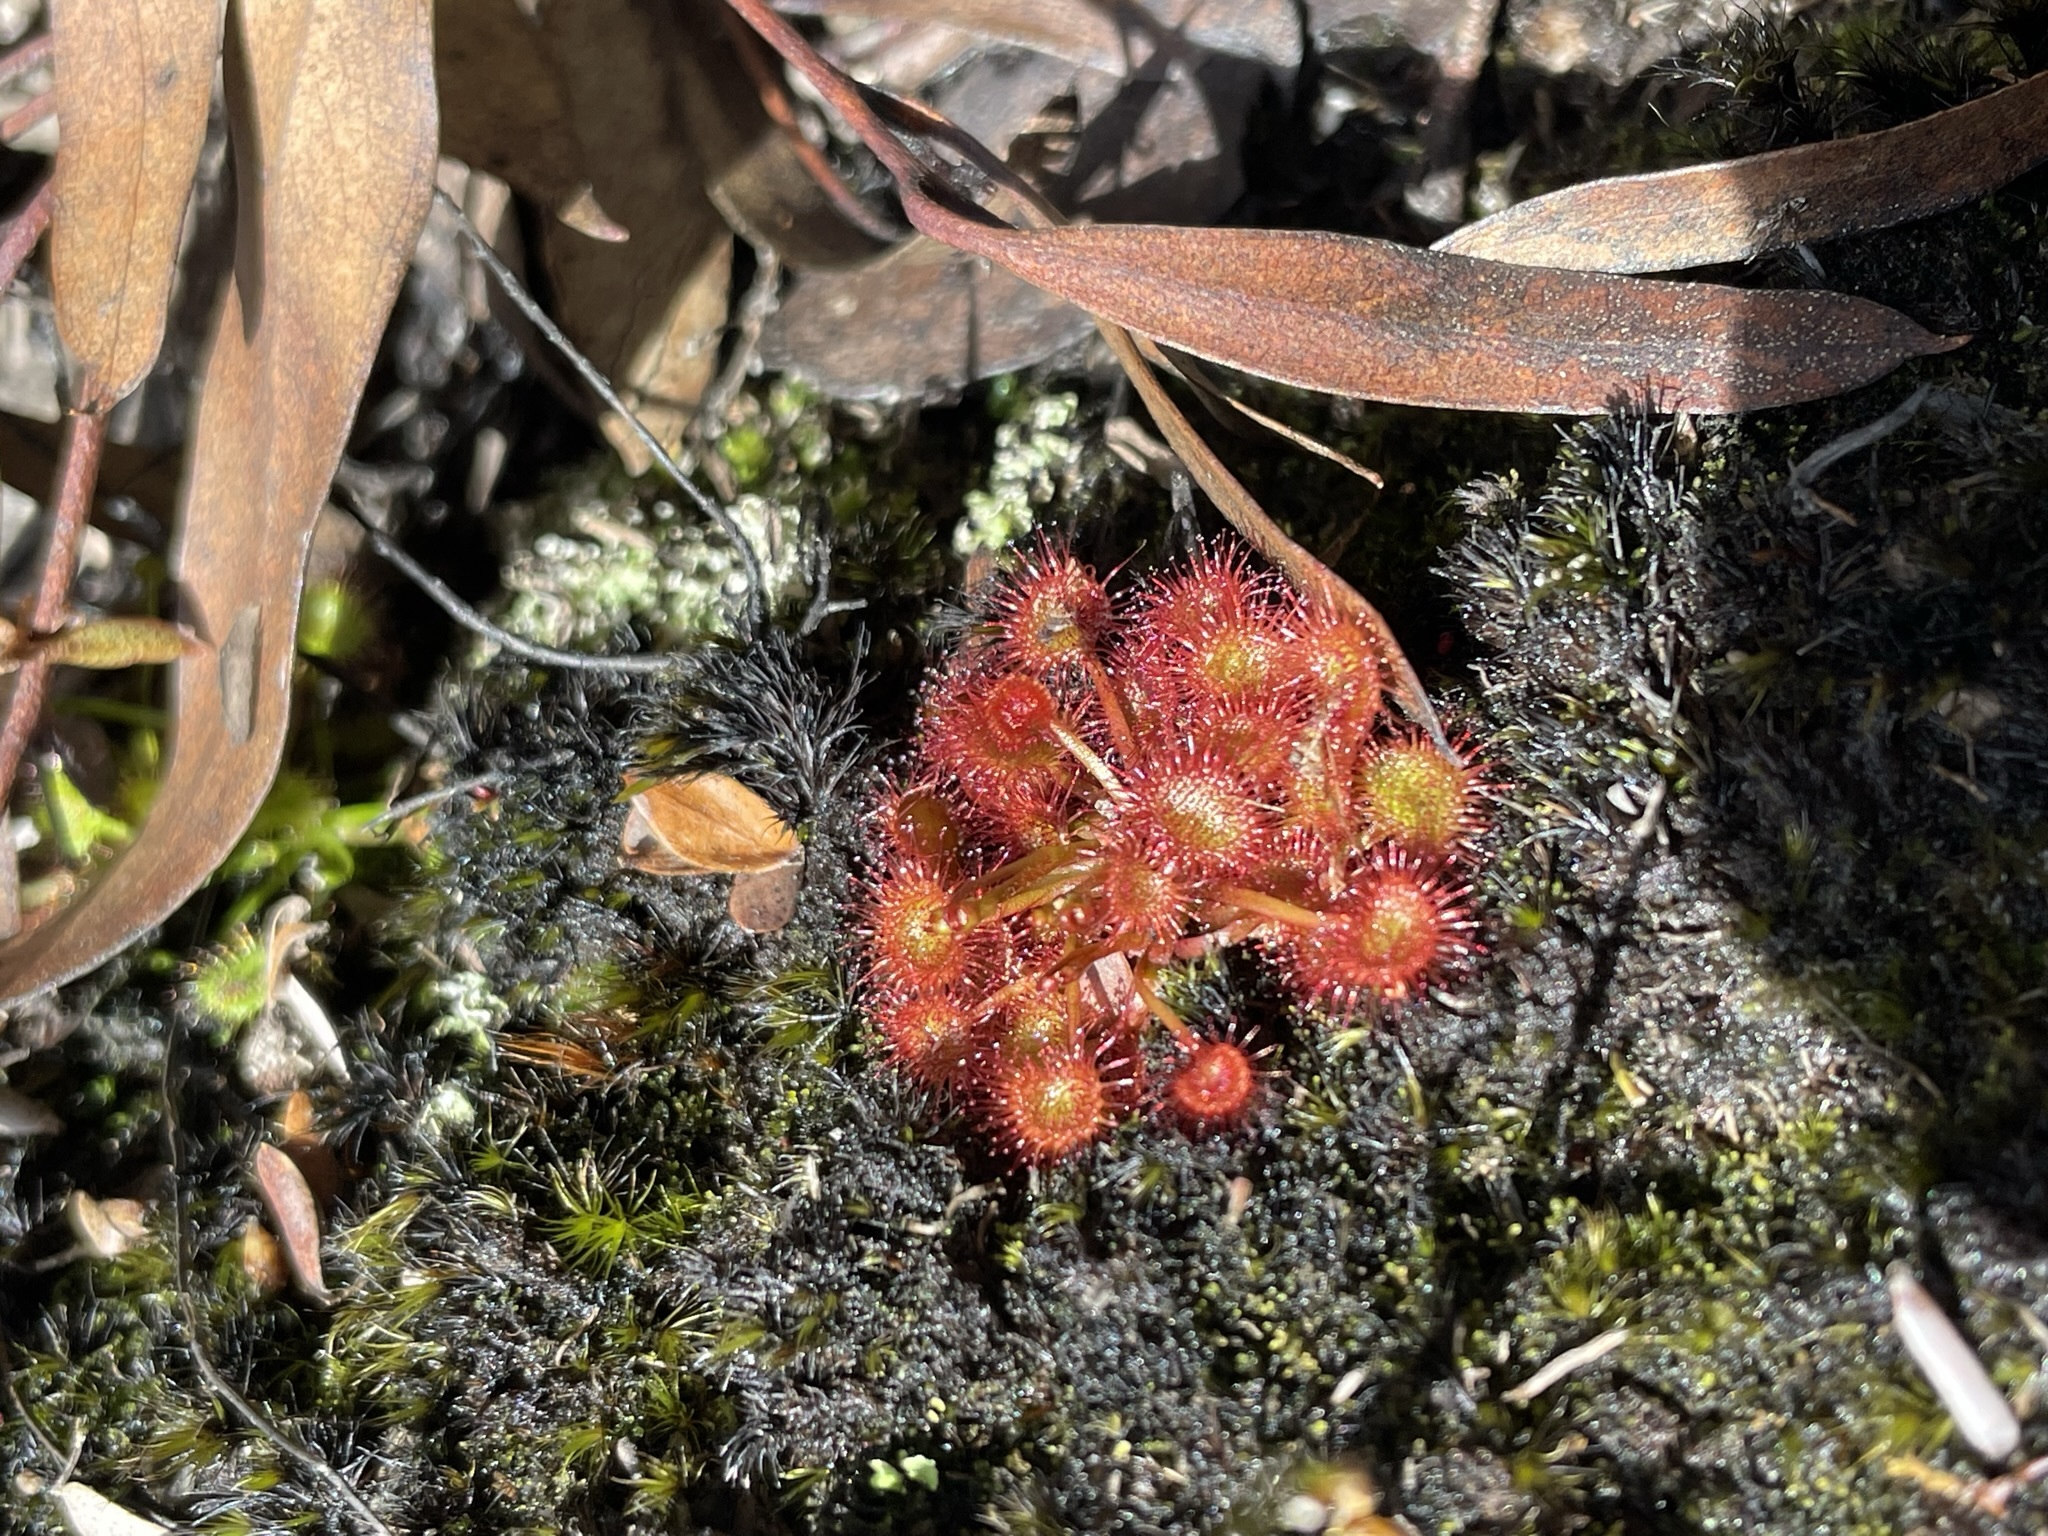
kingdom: Plantae
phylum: Tracheophyta
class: Magnoliopsida
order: Caryophyllales
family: Droseraceae
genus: Drosera
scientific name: Drosera peltata
